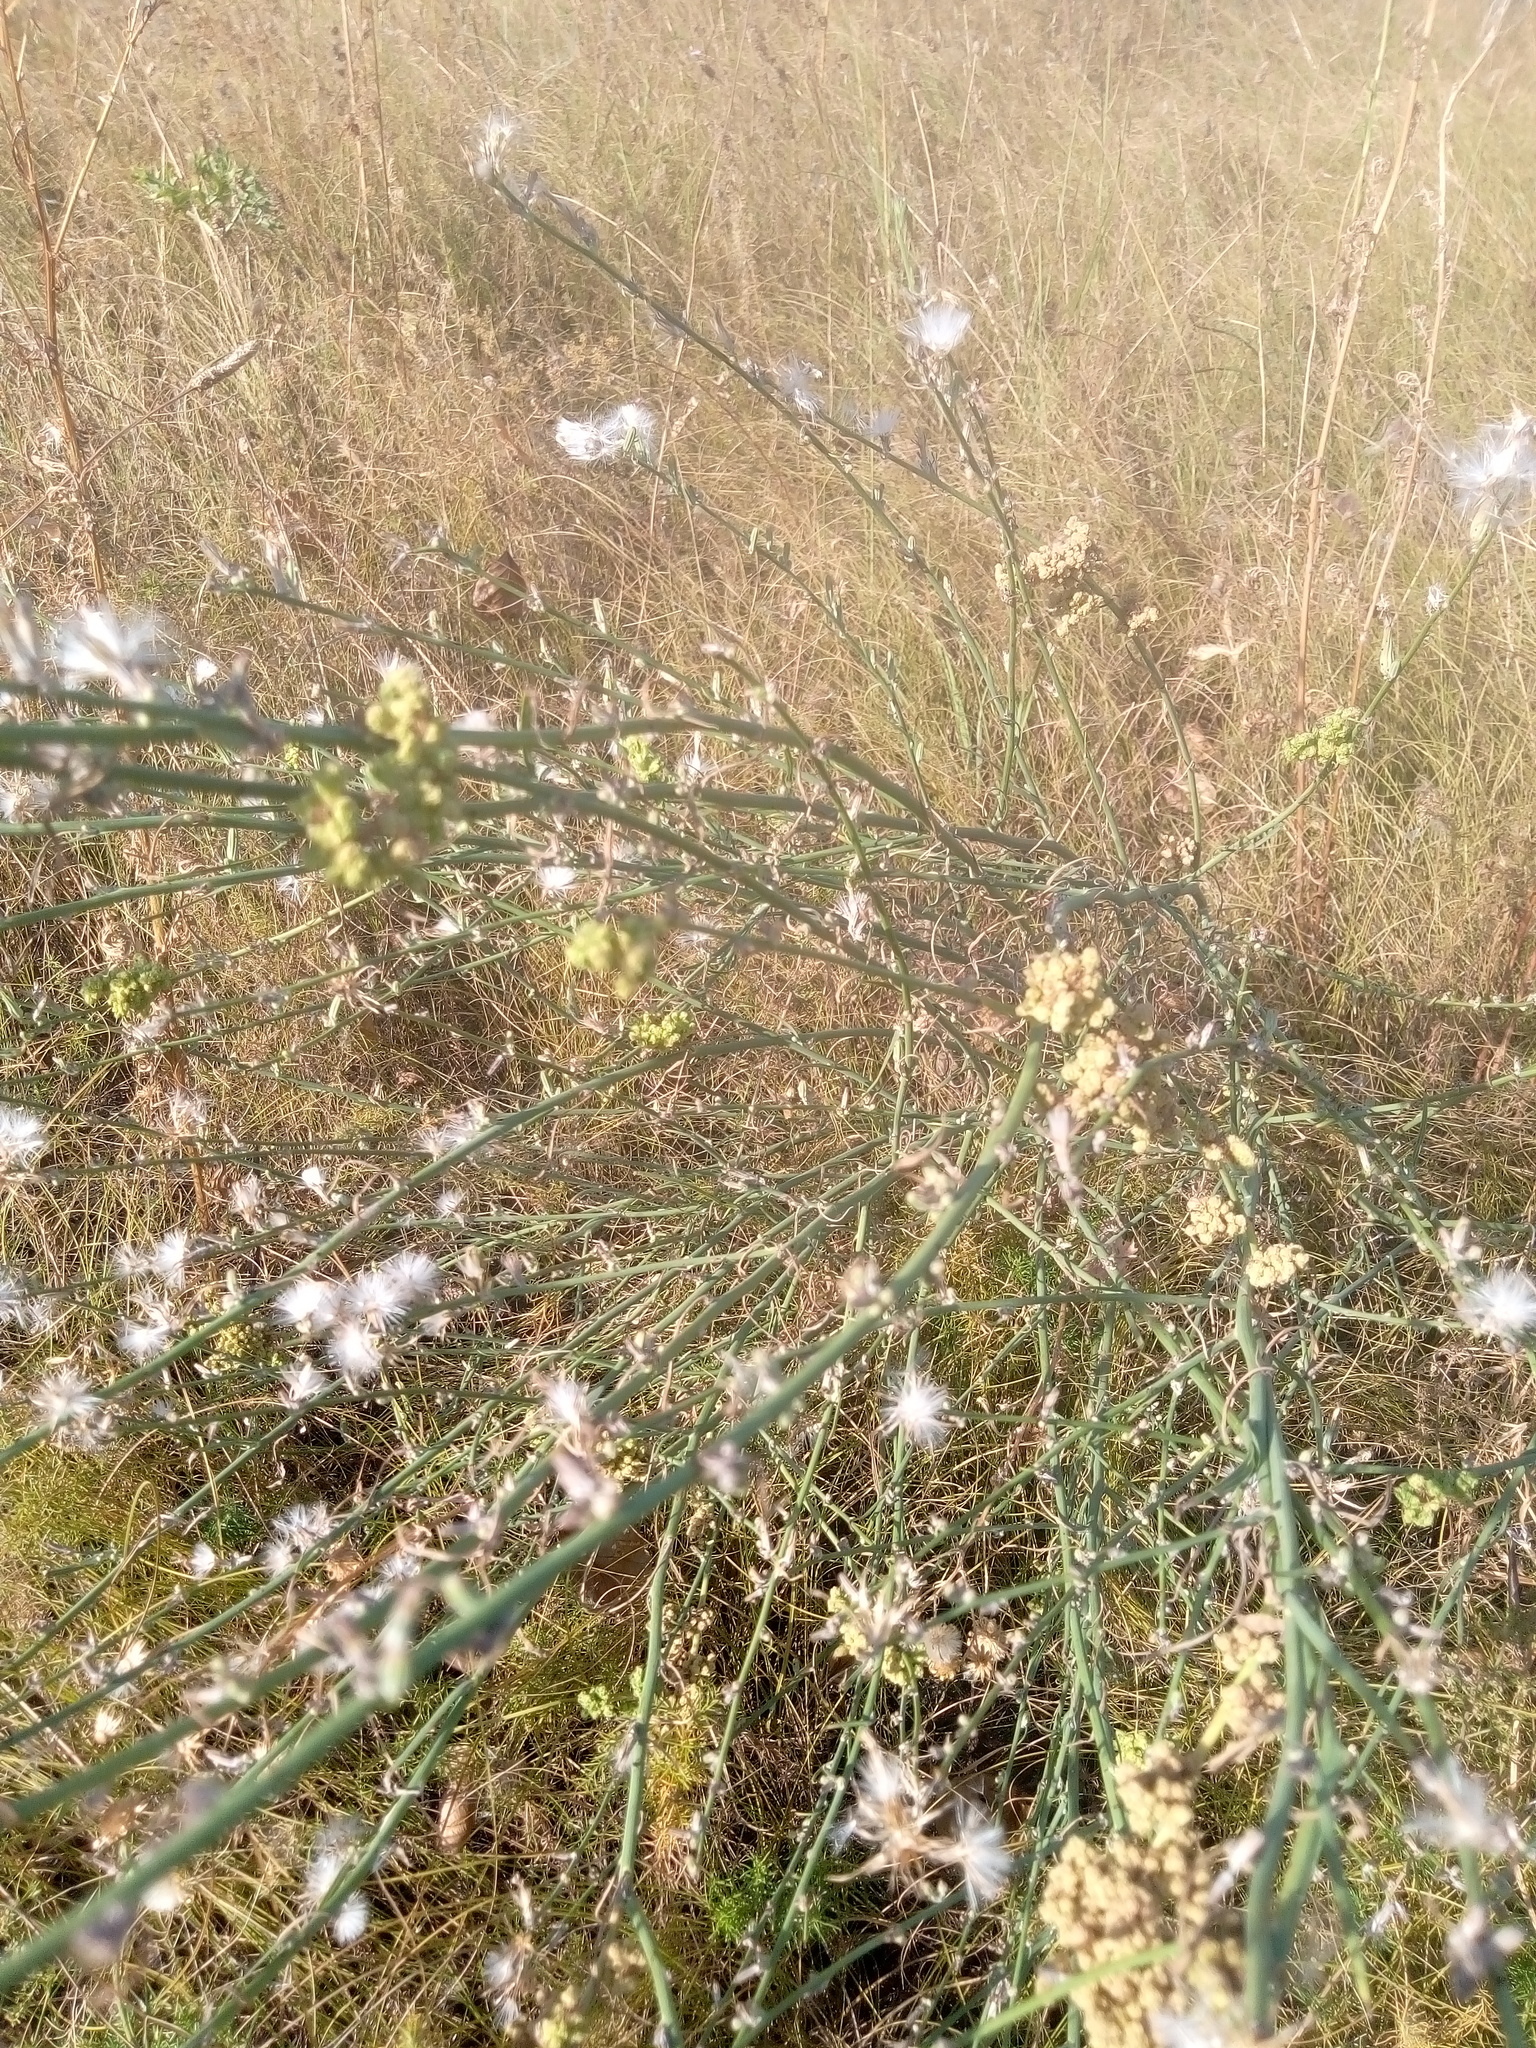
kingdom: Plantae
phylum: Tracheophyta
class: Magnoliopsida
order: Asterales
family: Asteraceae
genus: Chondrilla
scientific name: Chondrilla juncea
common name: Skeleton weed
